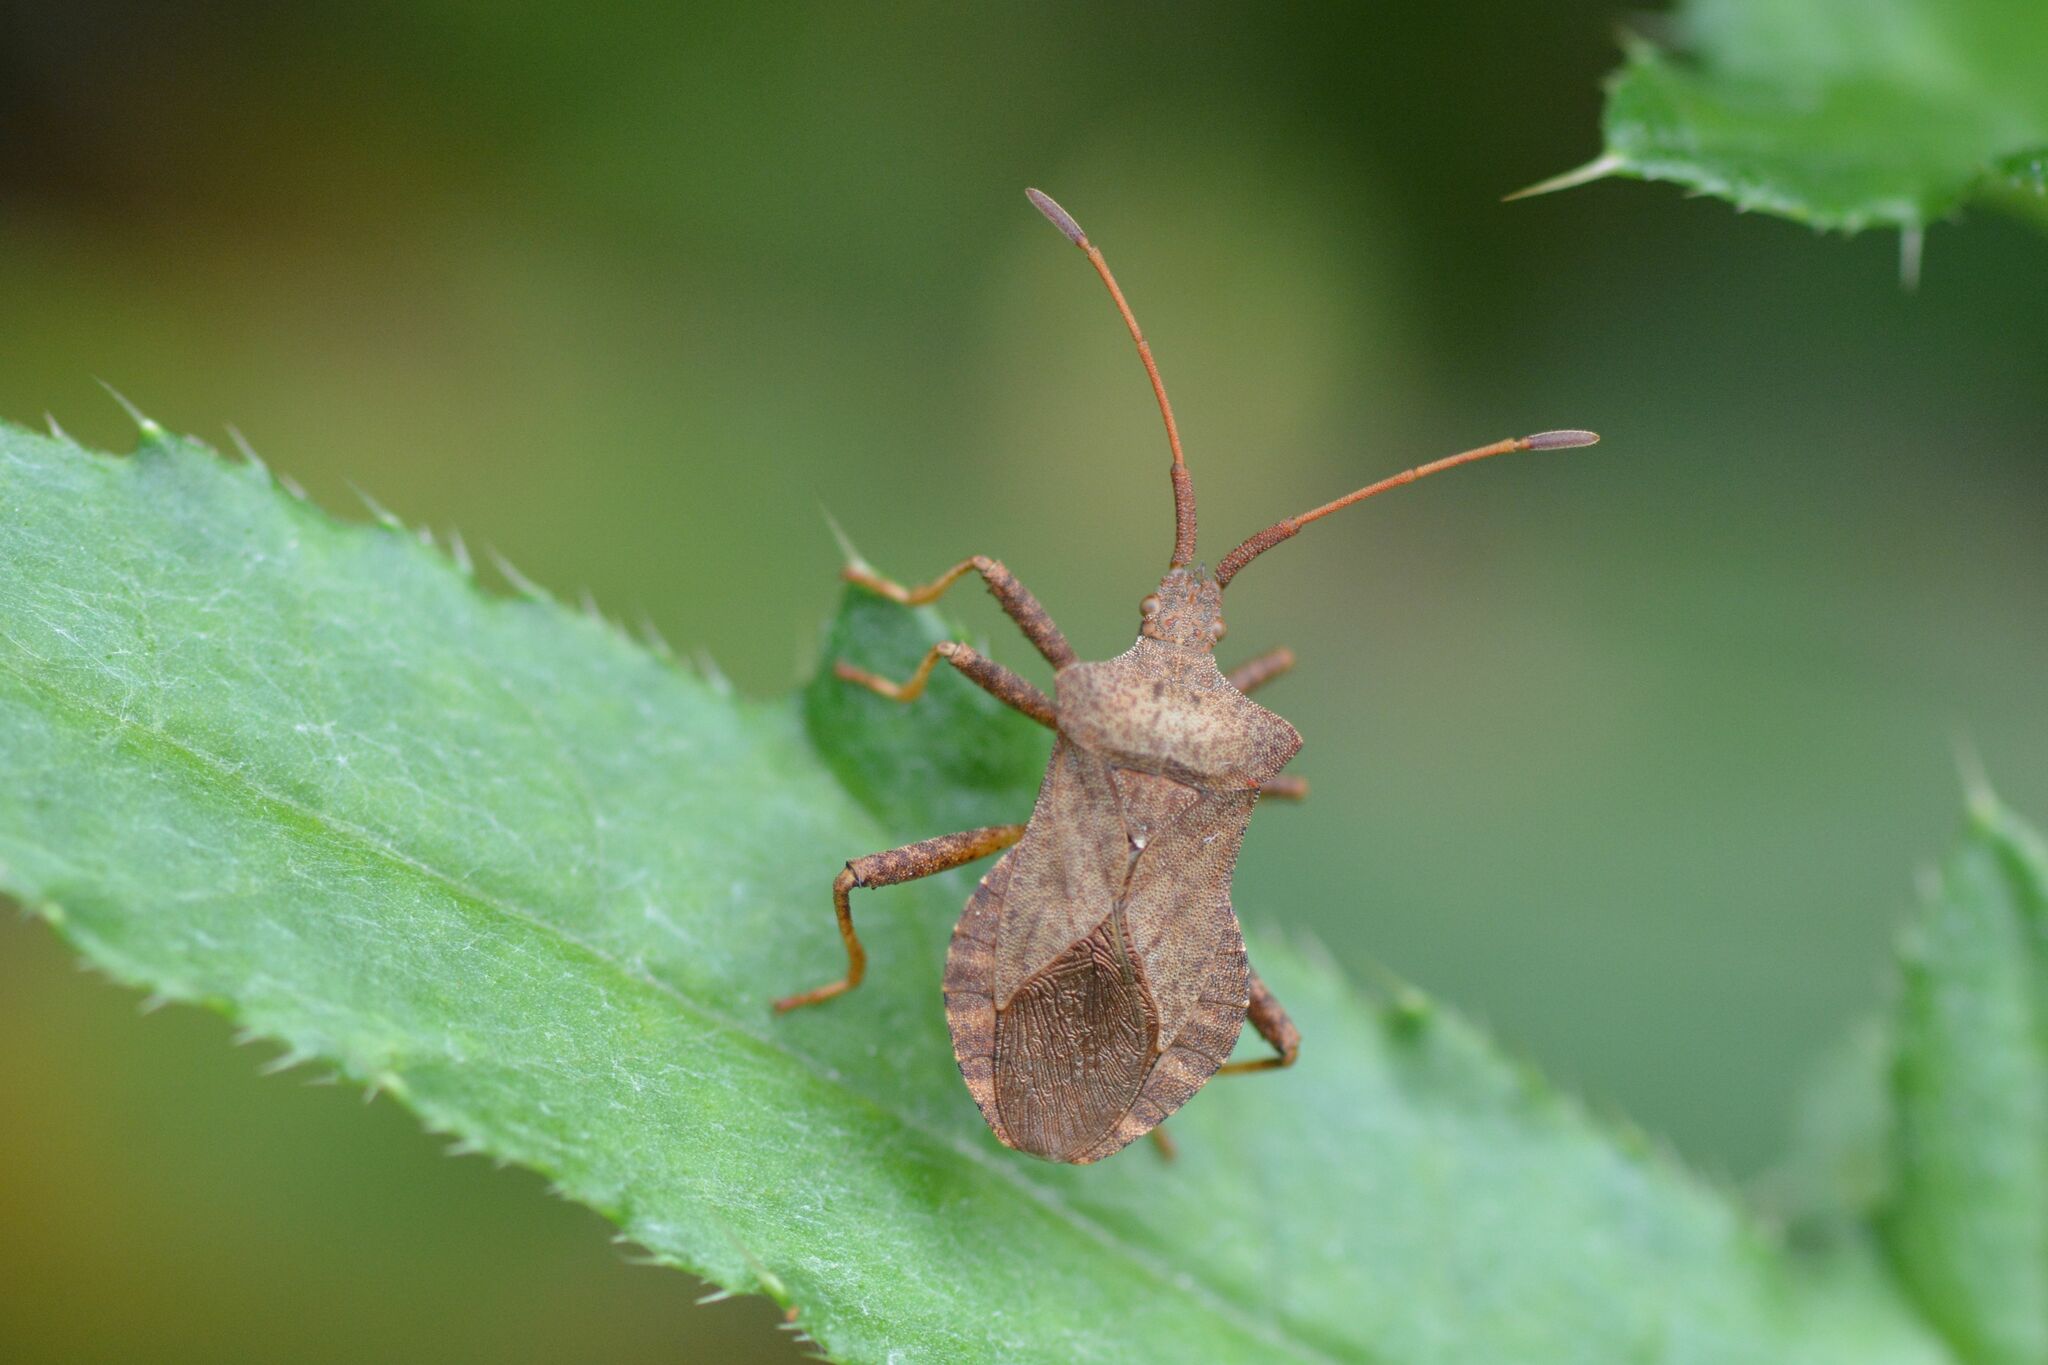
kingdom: Animalia
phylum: Arthropoda
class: Insecta
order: Hemiptera
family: Coreidae
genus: Coreus
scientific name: Coreus marginatus
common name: Dock bug
